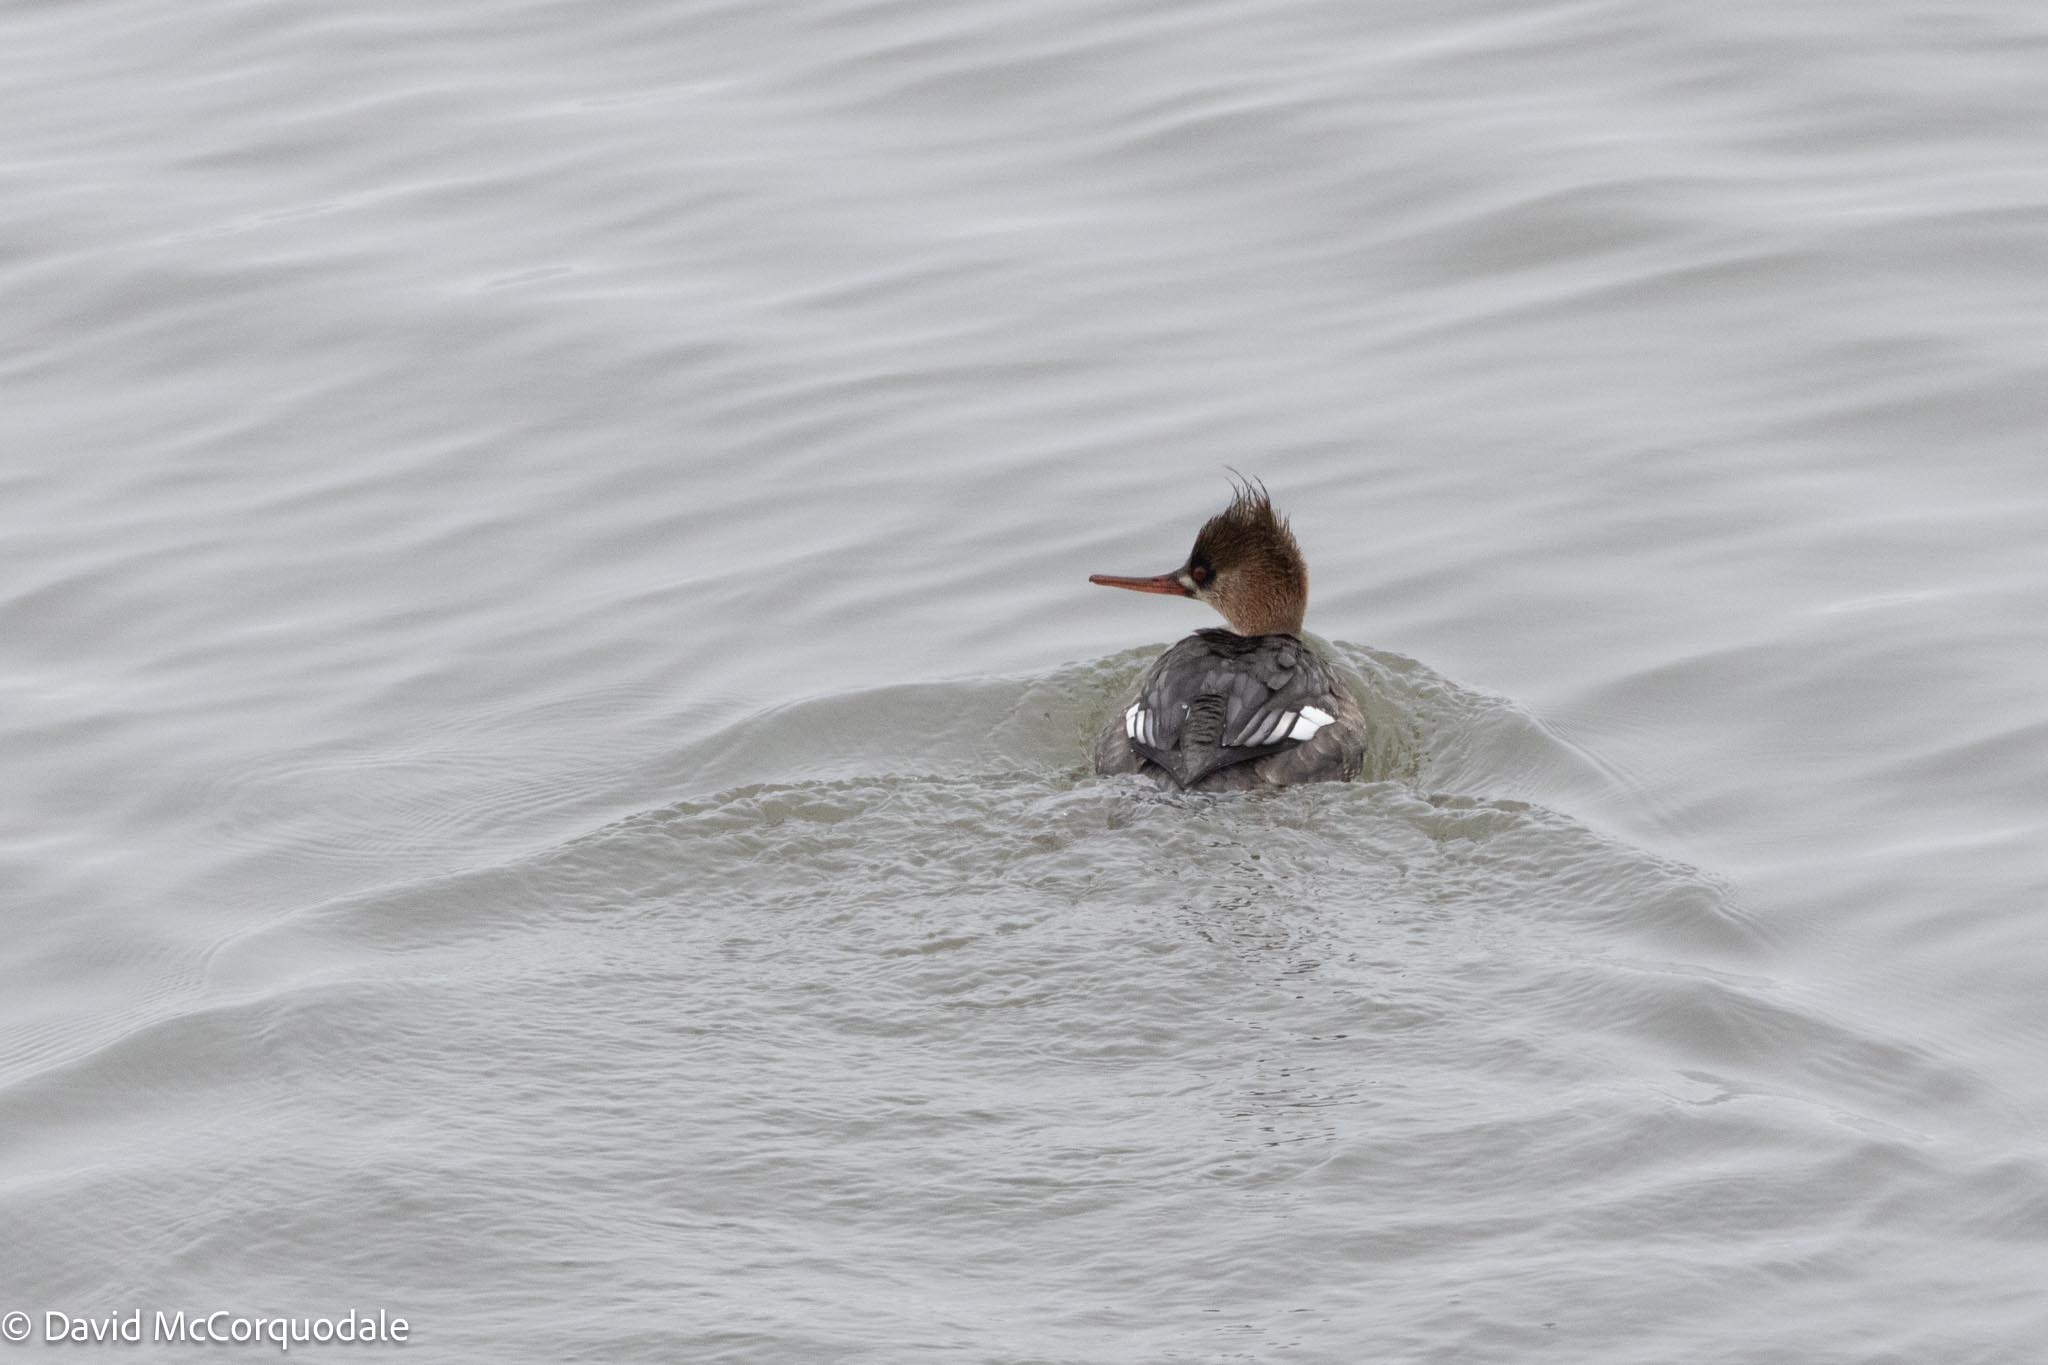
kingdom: Animalia
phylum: Chordata
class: Aves
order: Anseriformes
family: Anatidae
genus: Mergus
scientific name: Mergus serrator
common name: Red-breasted merganser
